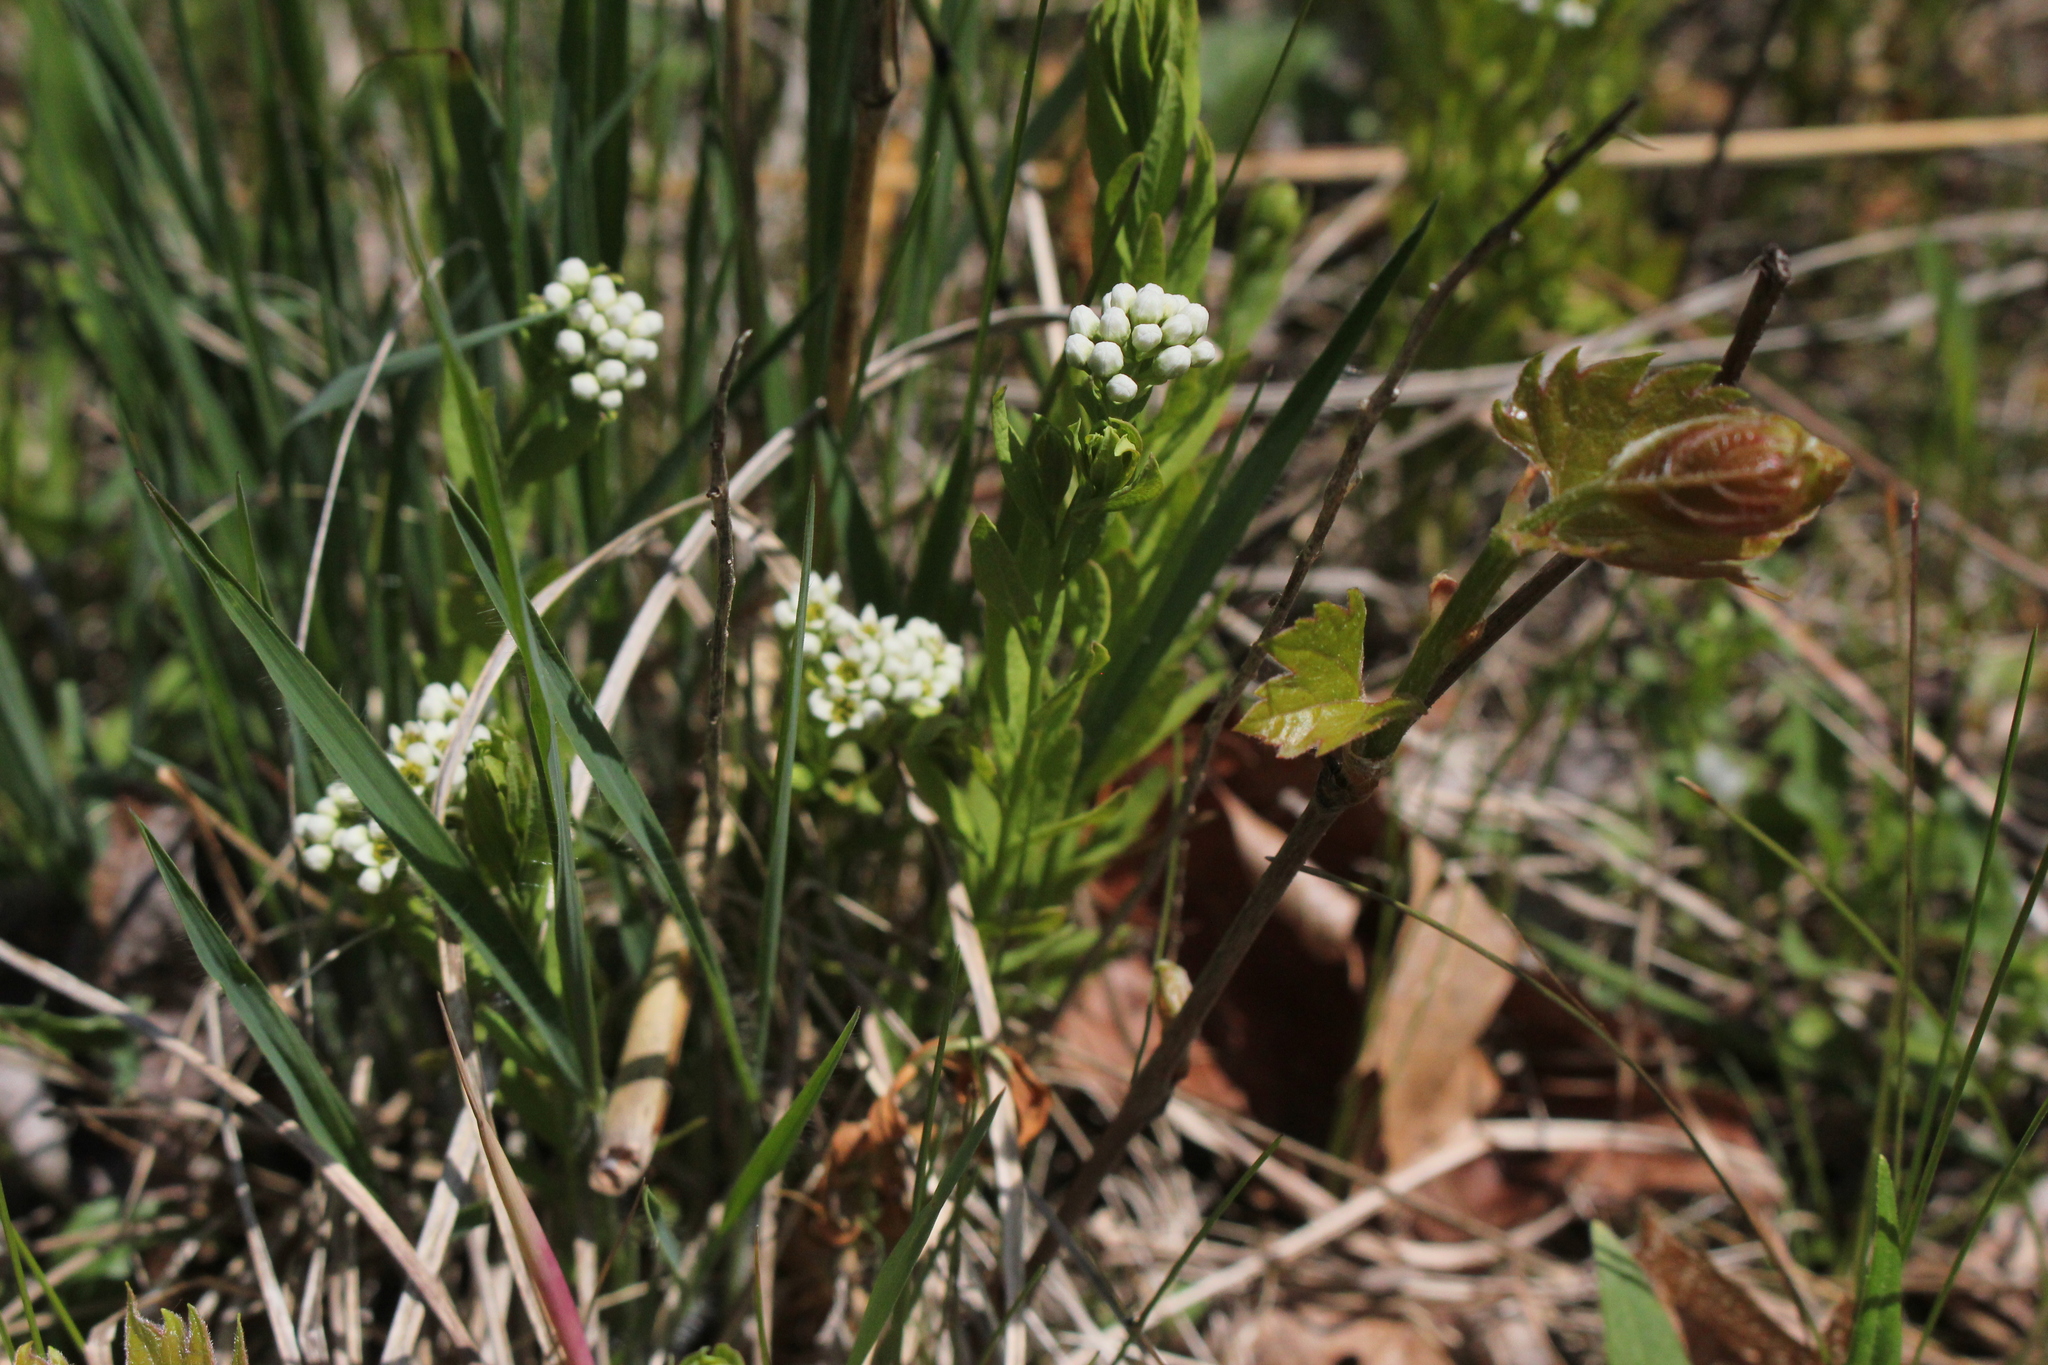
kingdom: Plantae
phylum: Tracheophyta
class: Magnoliopsida
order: Santalales
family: Comandraceae
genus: Comandra
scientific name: Comandra umbellata
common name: Bastard toadflax
